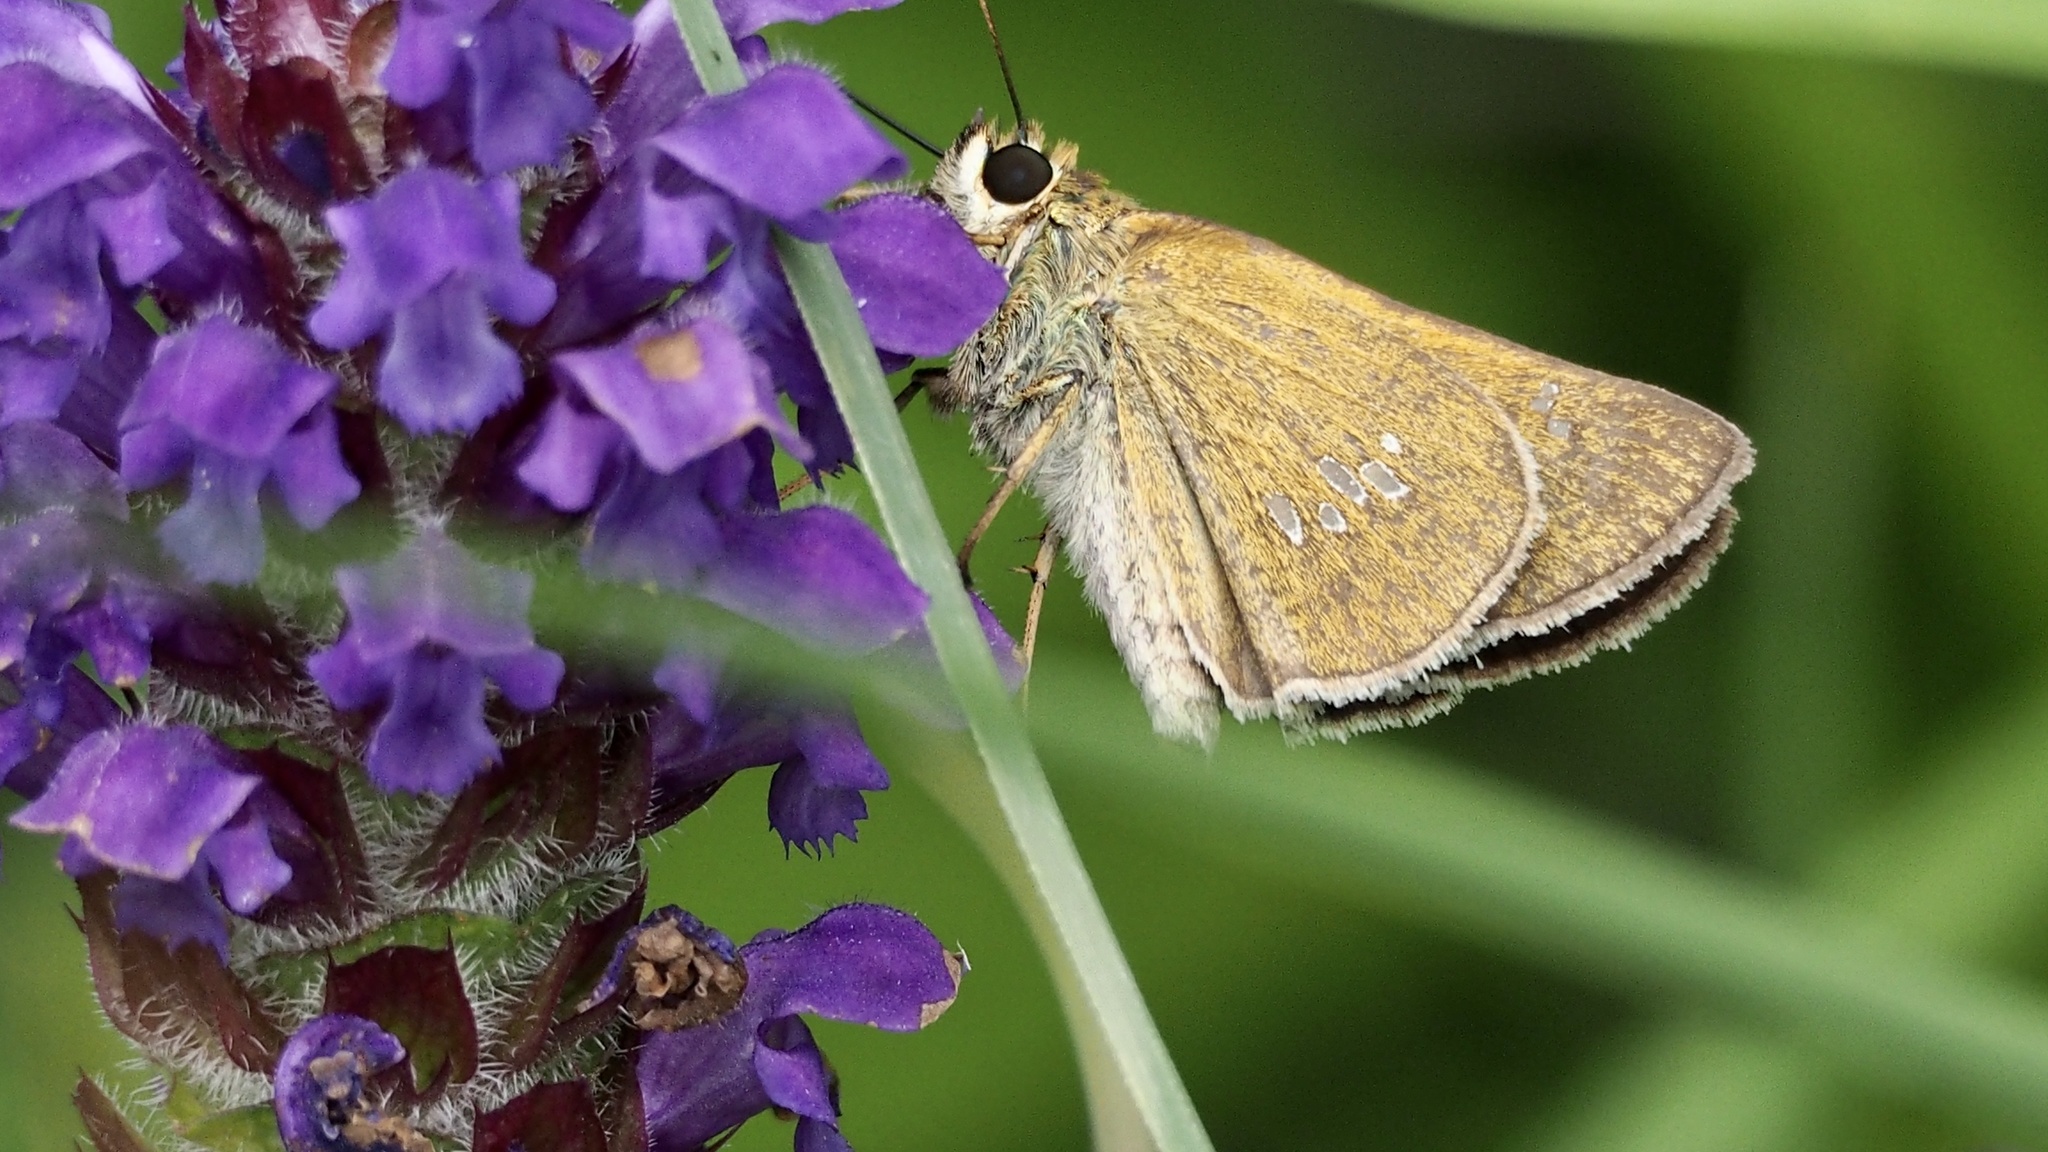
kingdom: Animalia
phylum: Arthropoda
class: Insecta
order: Lepidoptera
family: Hesperiidae
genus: Polytremis
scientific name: Polytremis pellucida
